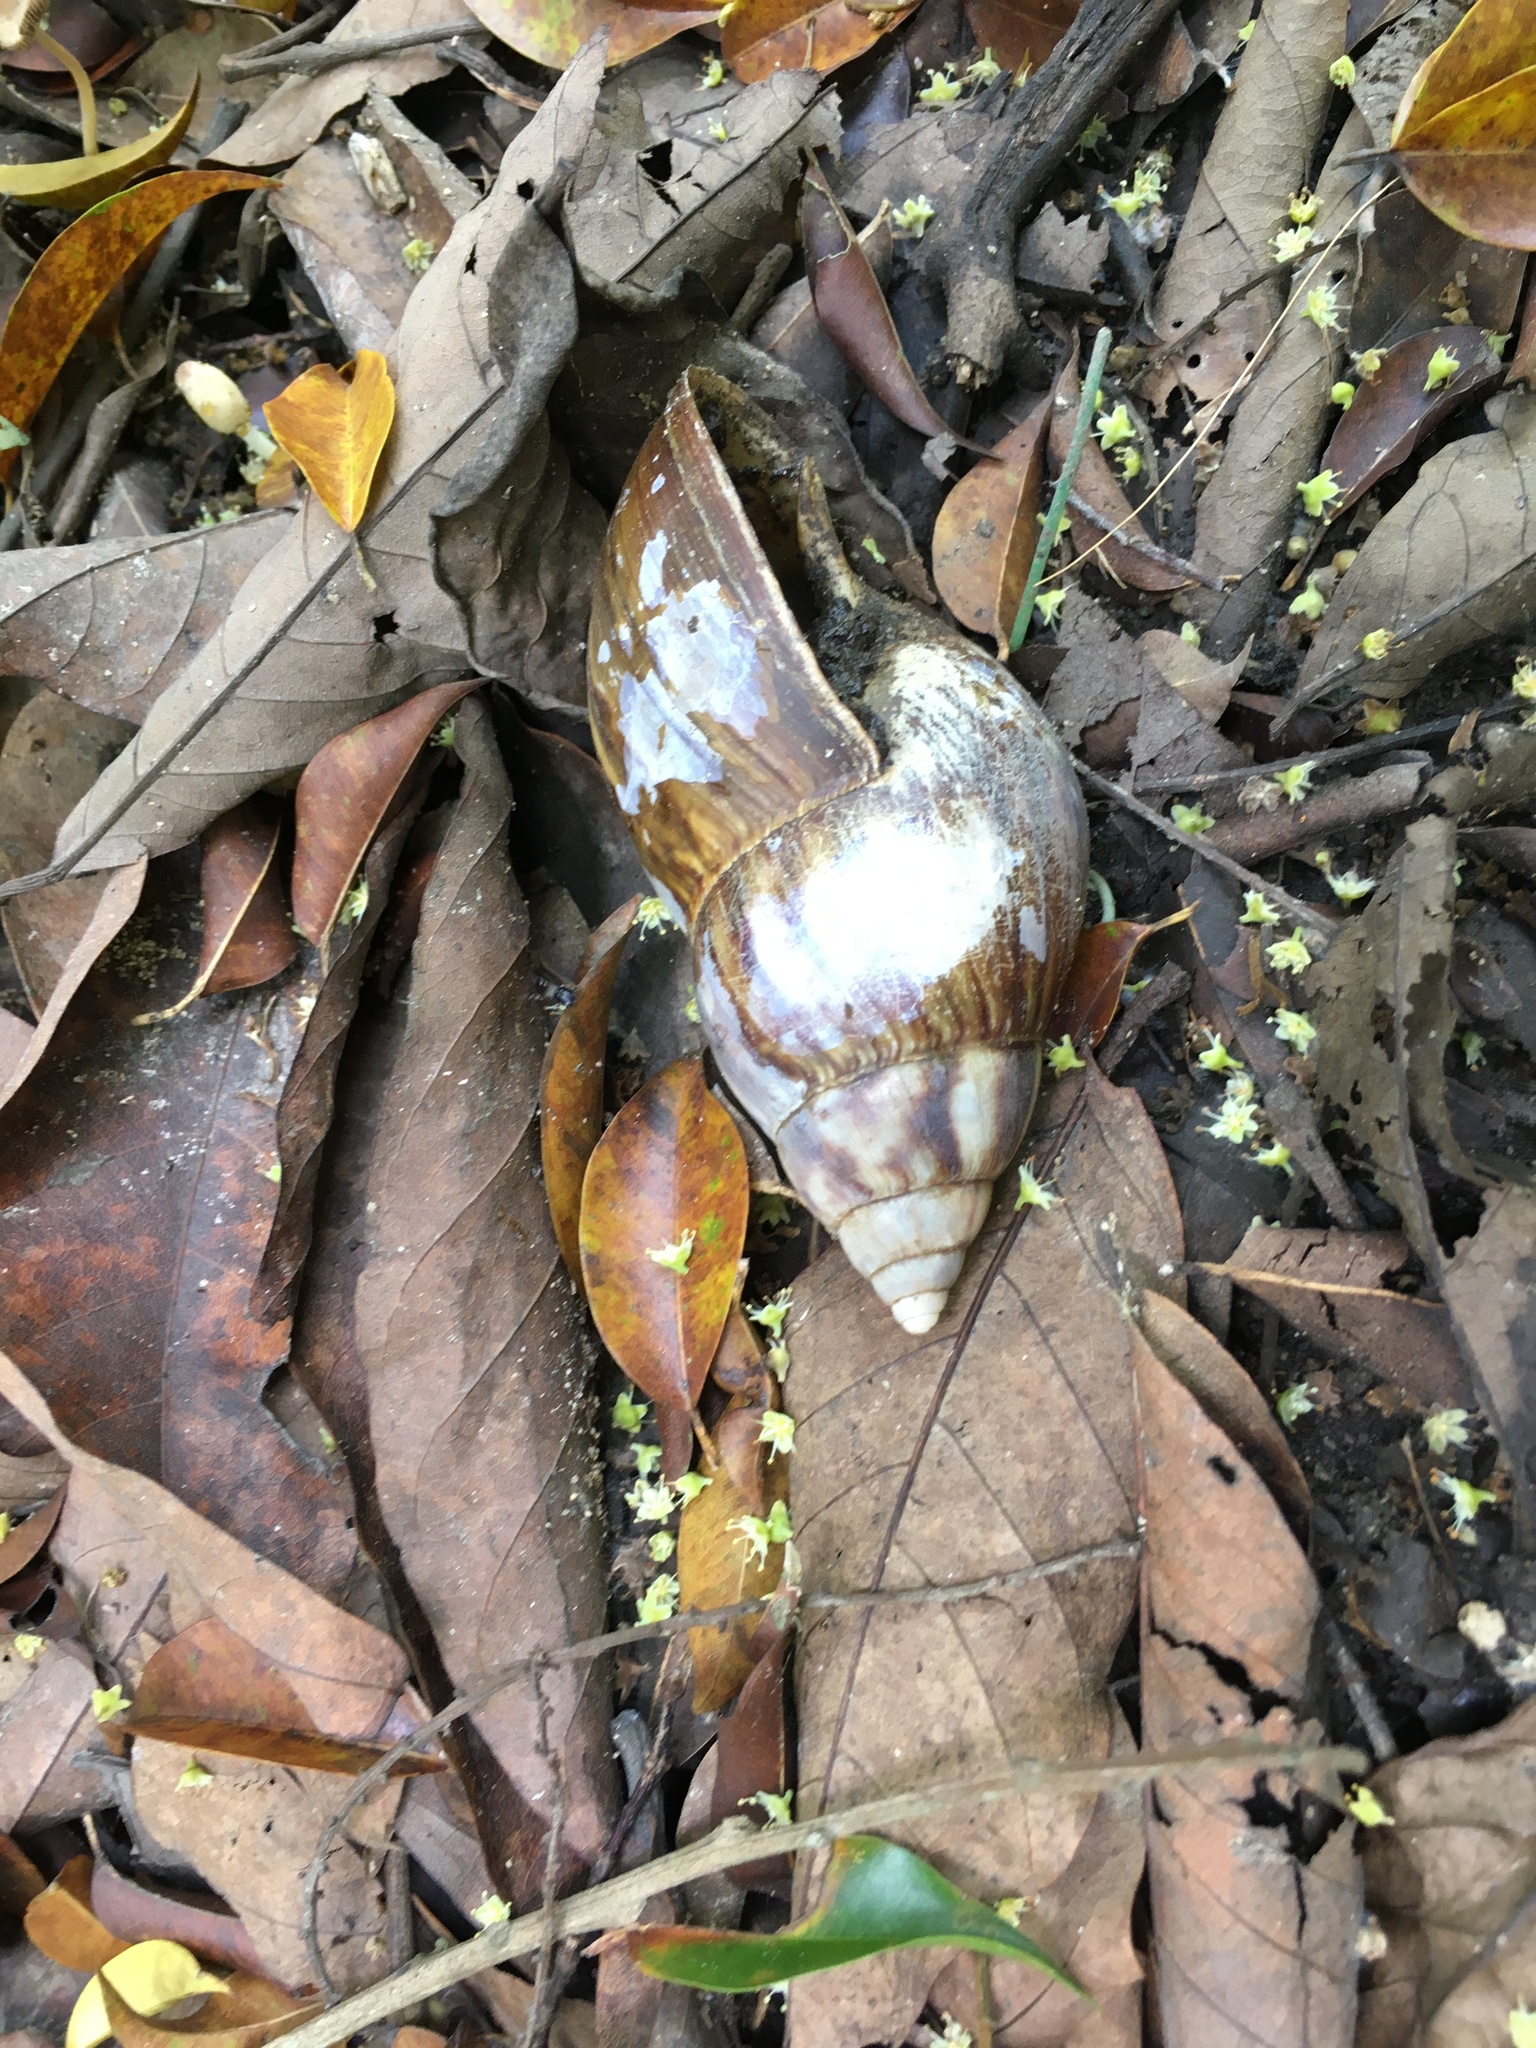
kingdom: Animalia
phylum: Mollusca
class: Gastropoda
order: Stylommatophora
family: Achatinidae
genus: Lissachatina
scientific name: Lissachatina fulica
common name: Giant african snail
